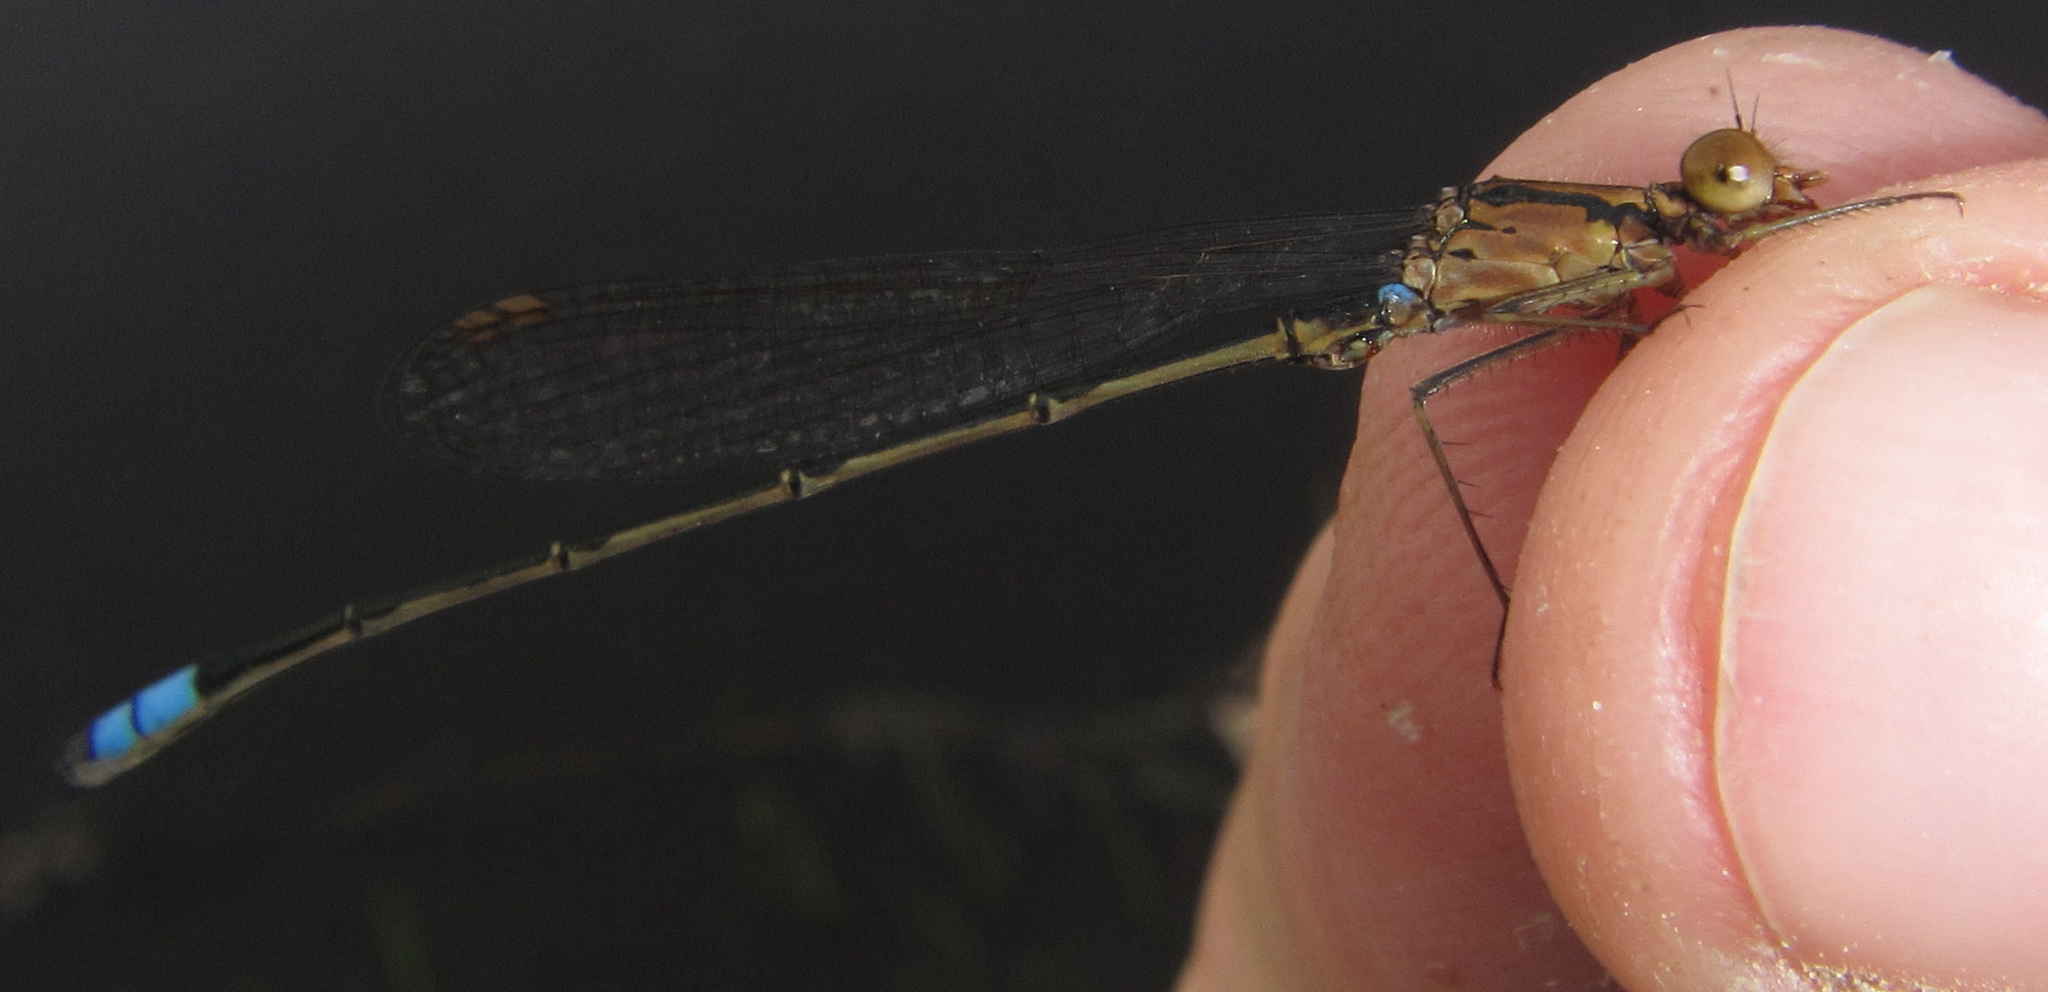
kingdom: Animalia
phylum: Arthropoda
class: Insecta
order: Odonata
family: Coenagrionidae
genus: Pseudagrion
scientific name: Pseudagrion sudanicum
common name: Blue-sided sprite
